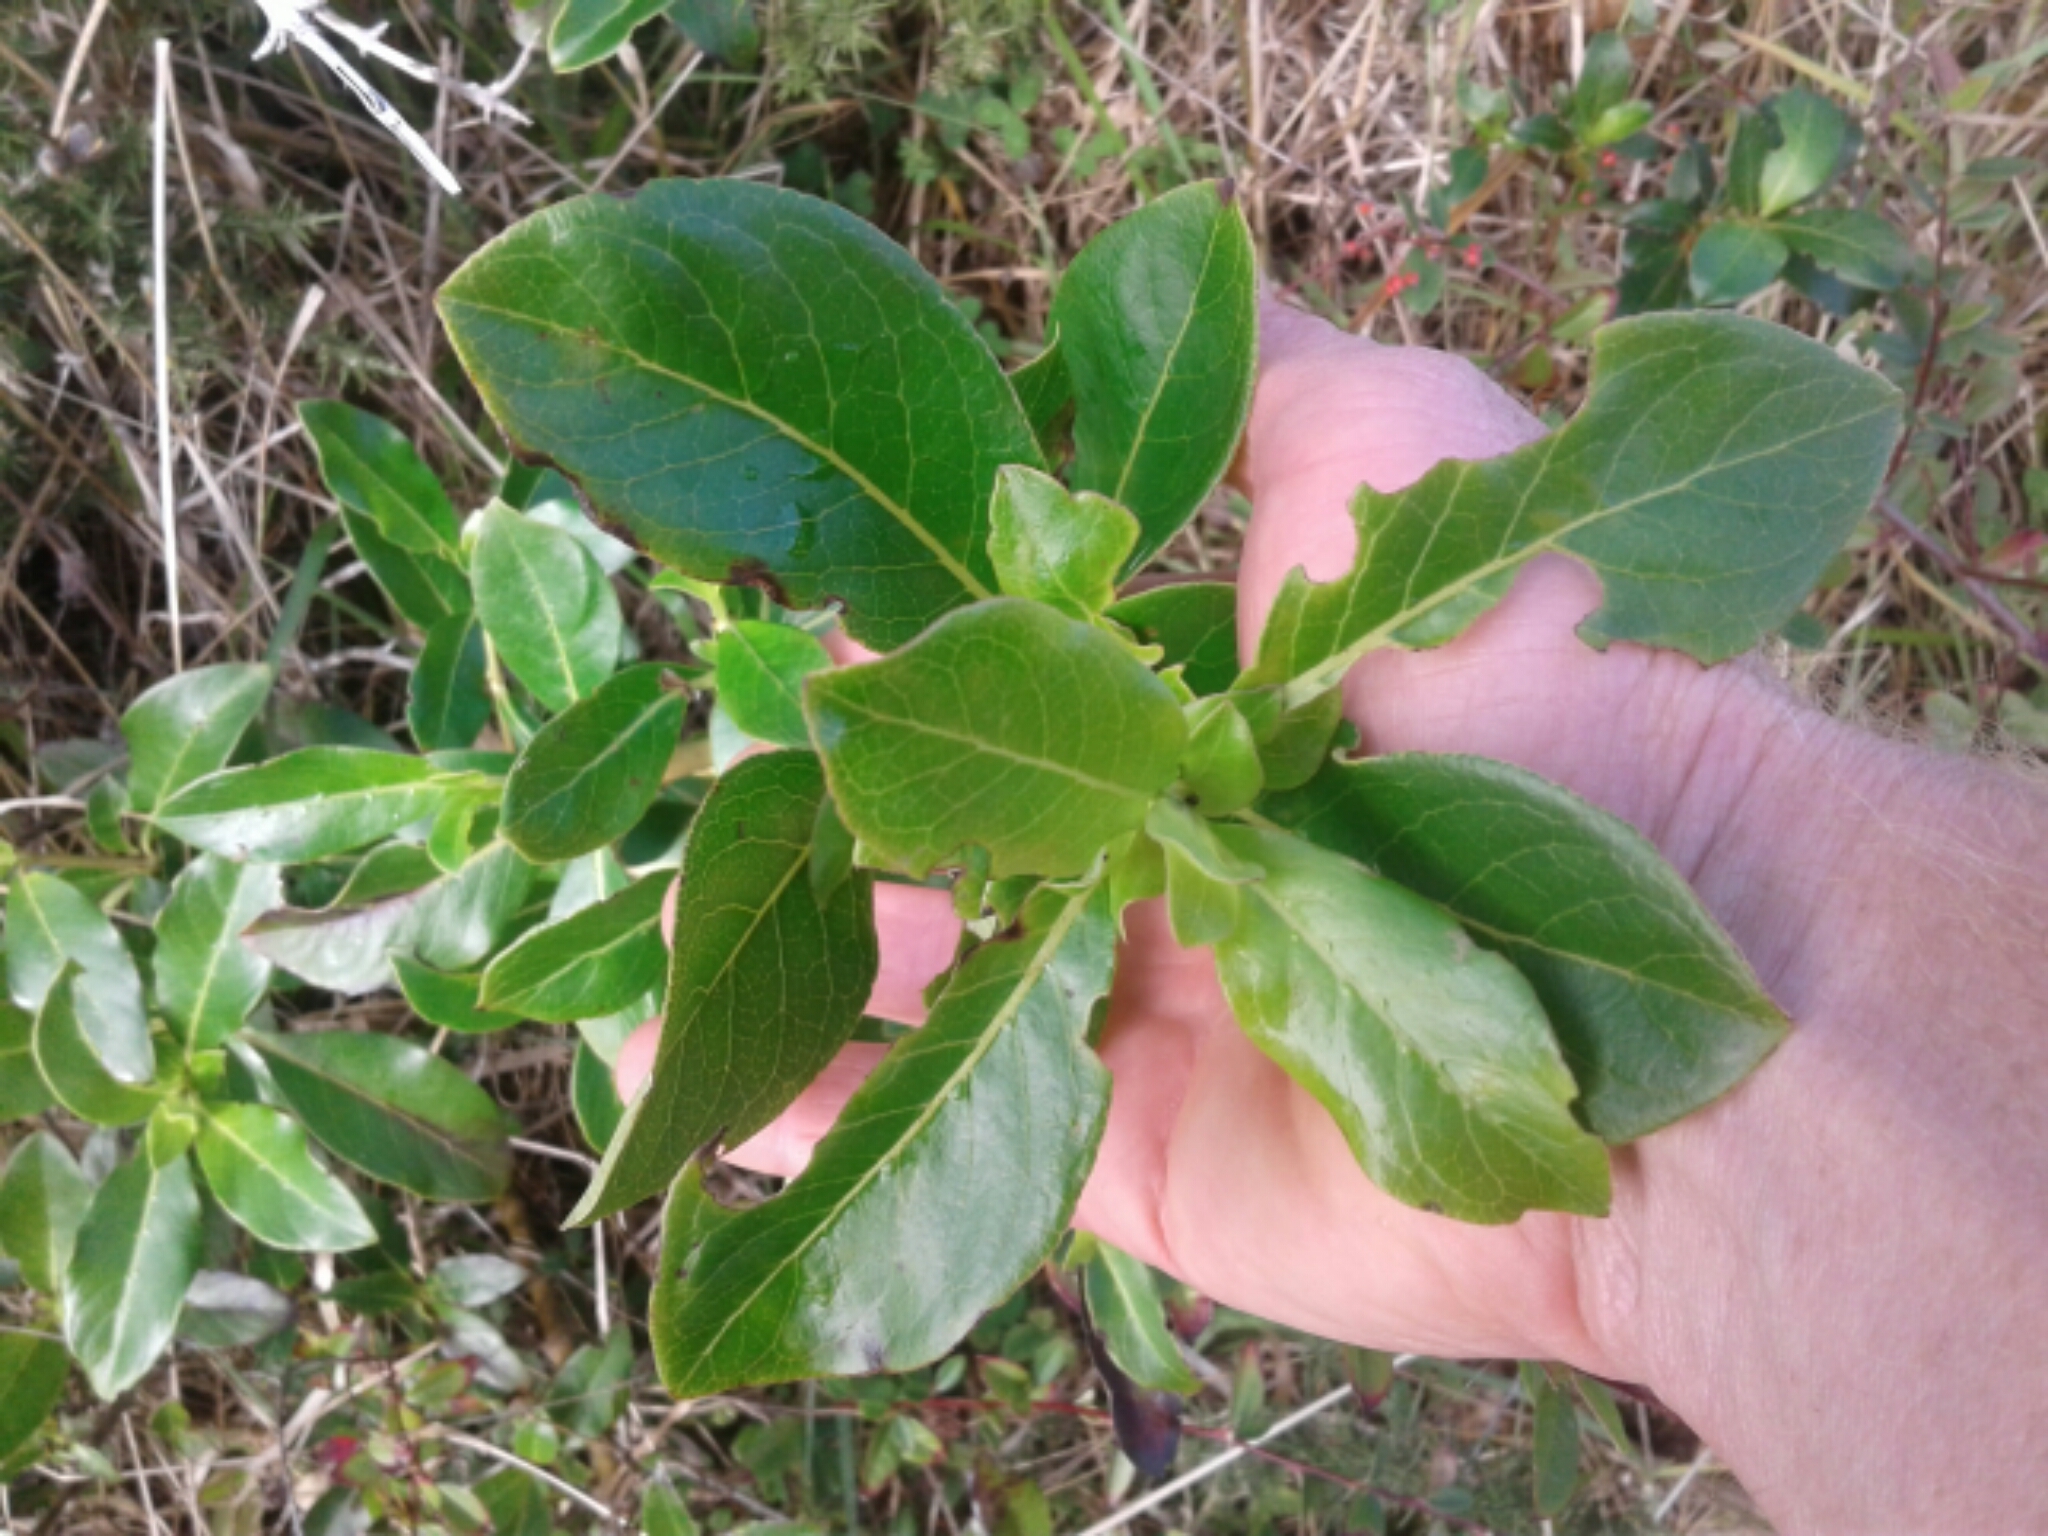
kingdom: Plantae
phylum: Tracheophyta
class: Magnoliopsida
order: Gentianales
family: Rubiaceae
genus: Coprosma
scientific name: Coprosma robusta
